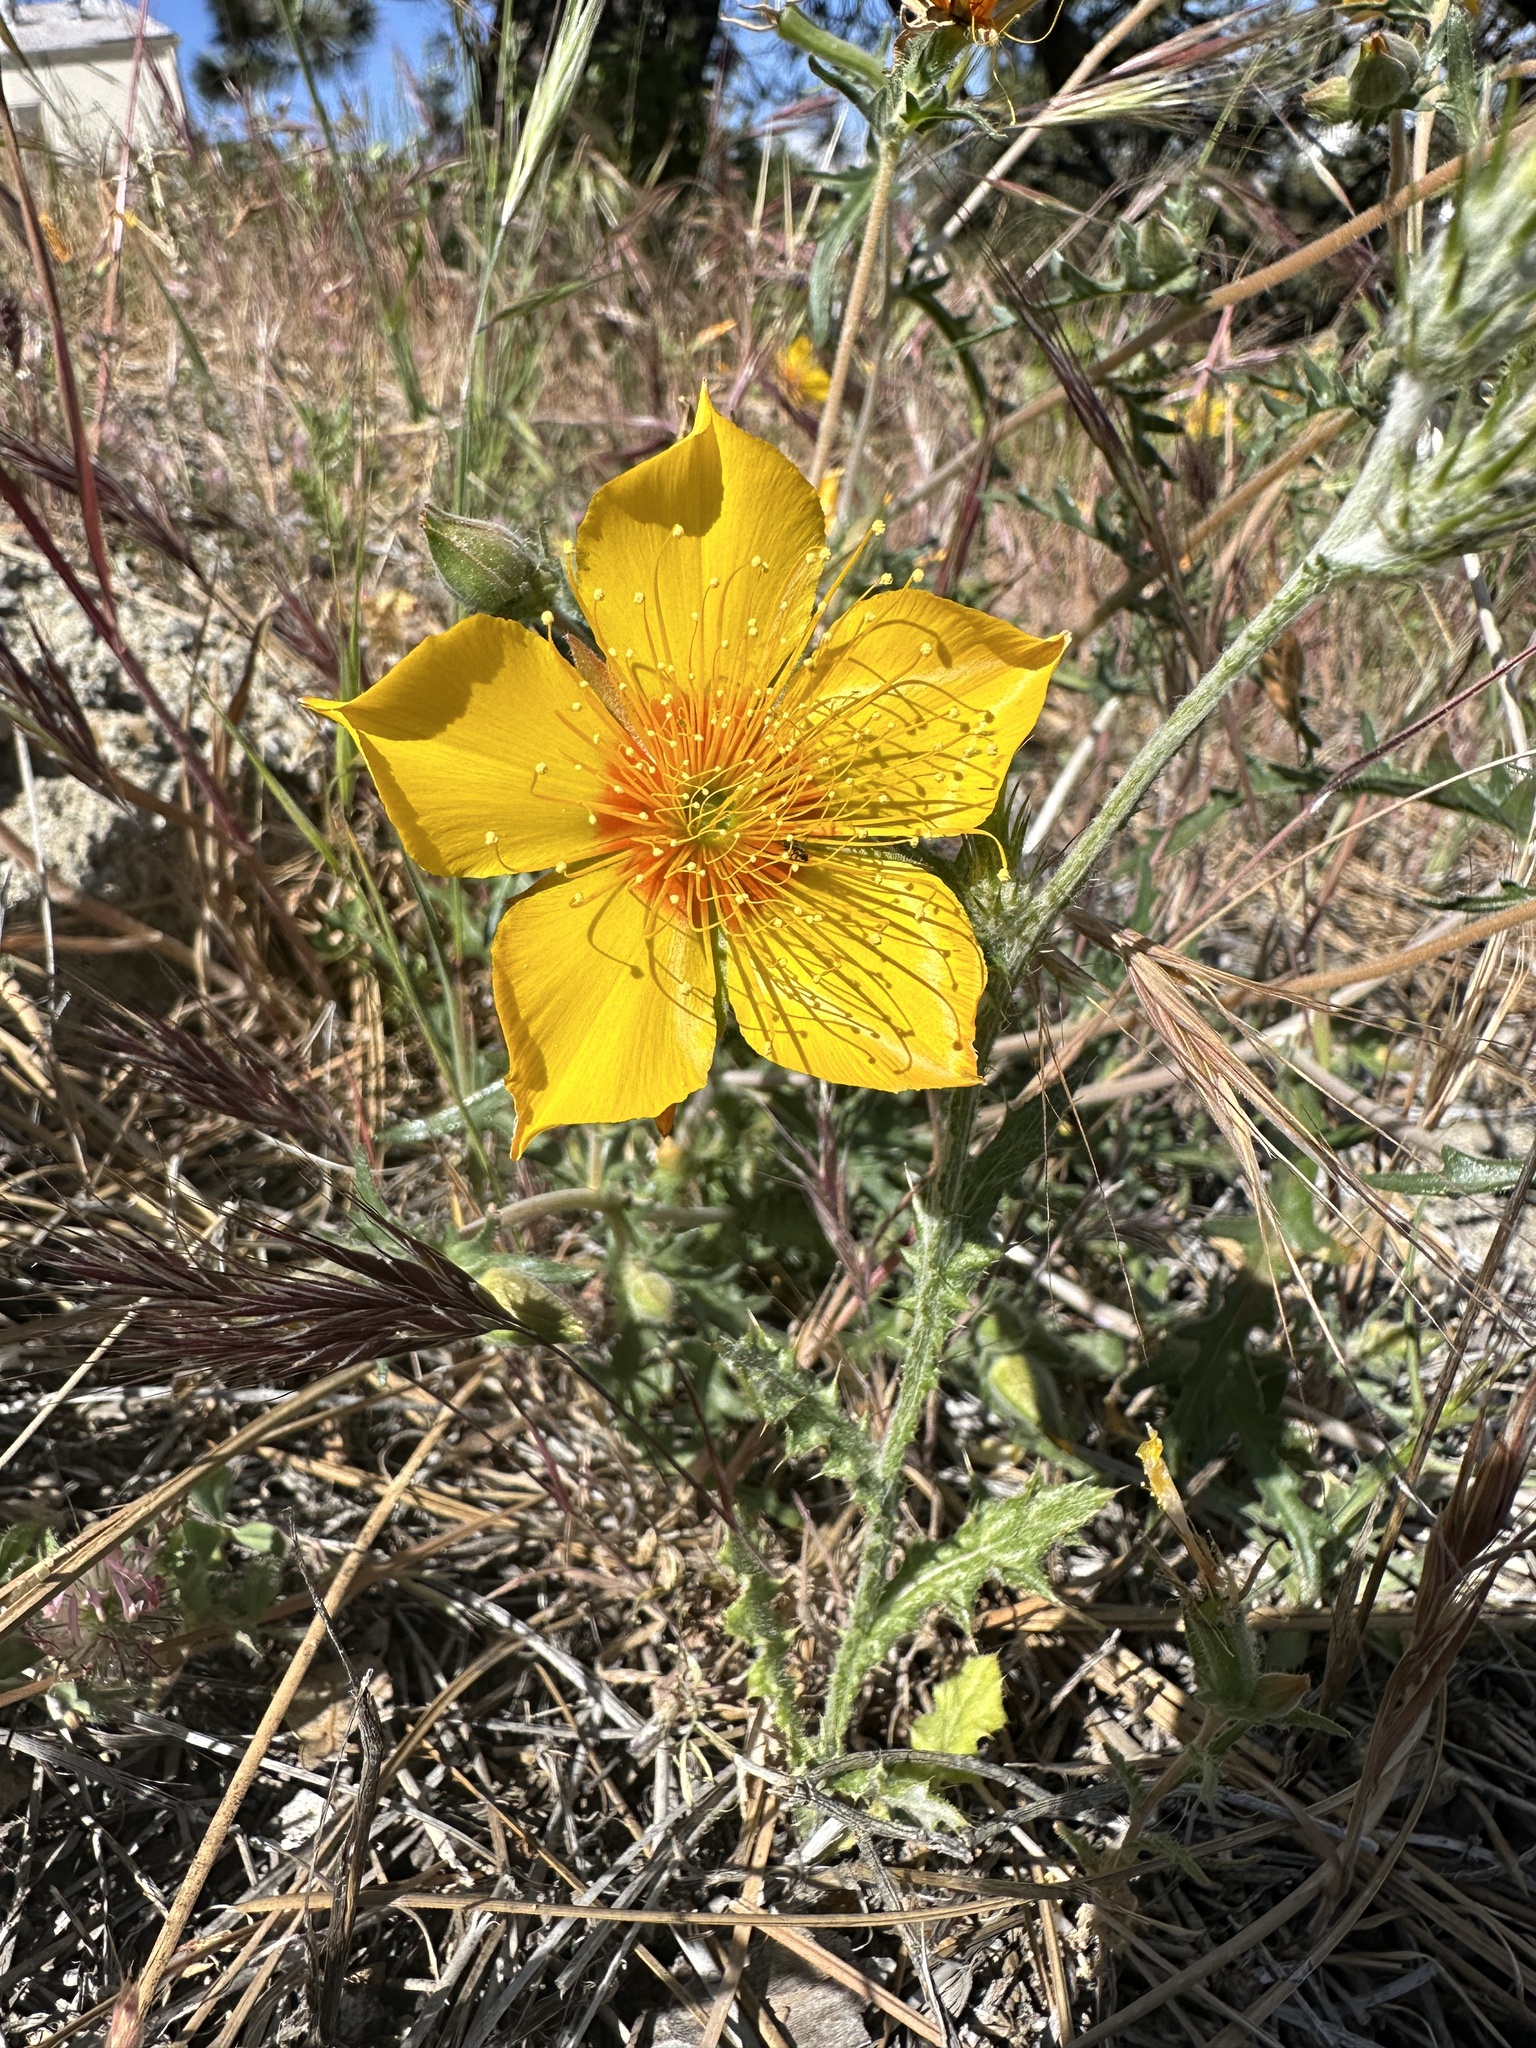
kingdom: Plantae
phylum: Tracheophyta
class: Magnoliopsida
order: Cornales
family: Loasaceae
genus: Mentzelia
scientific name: Mentzelia lindleyi
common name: Golden bartonia
